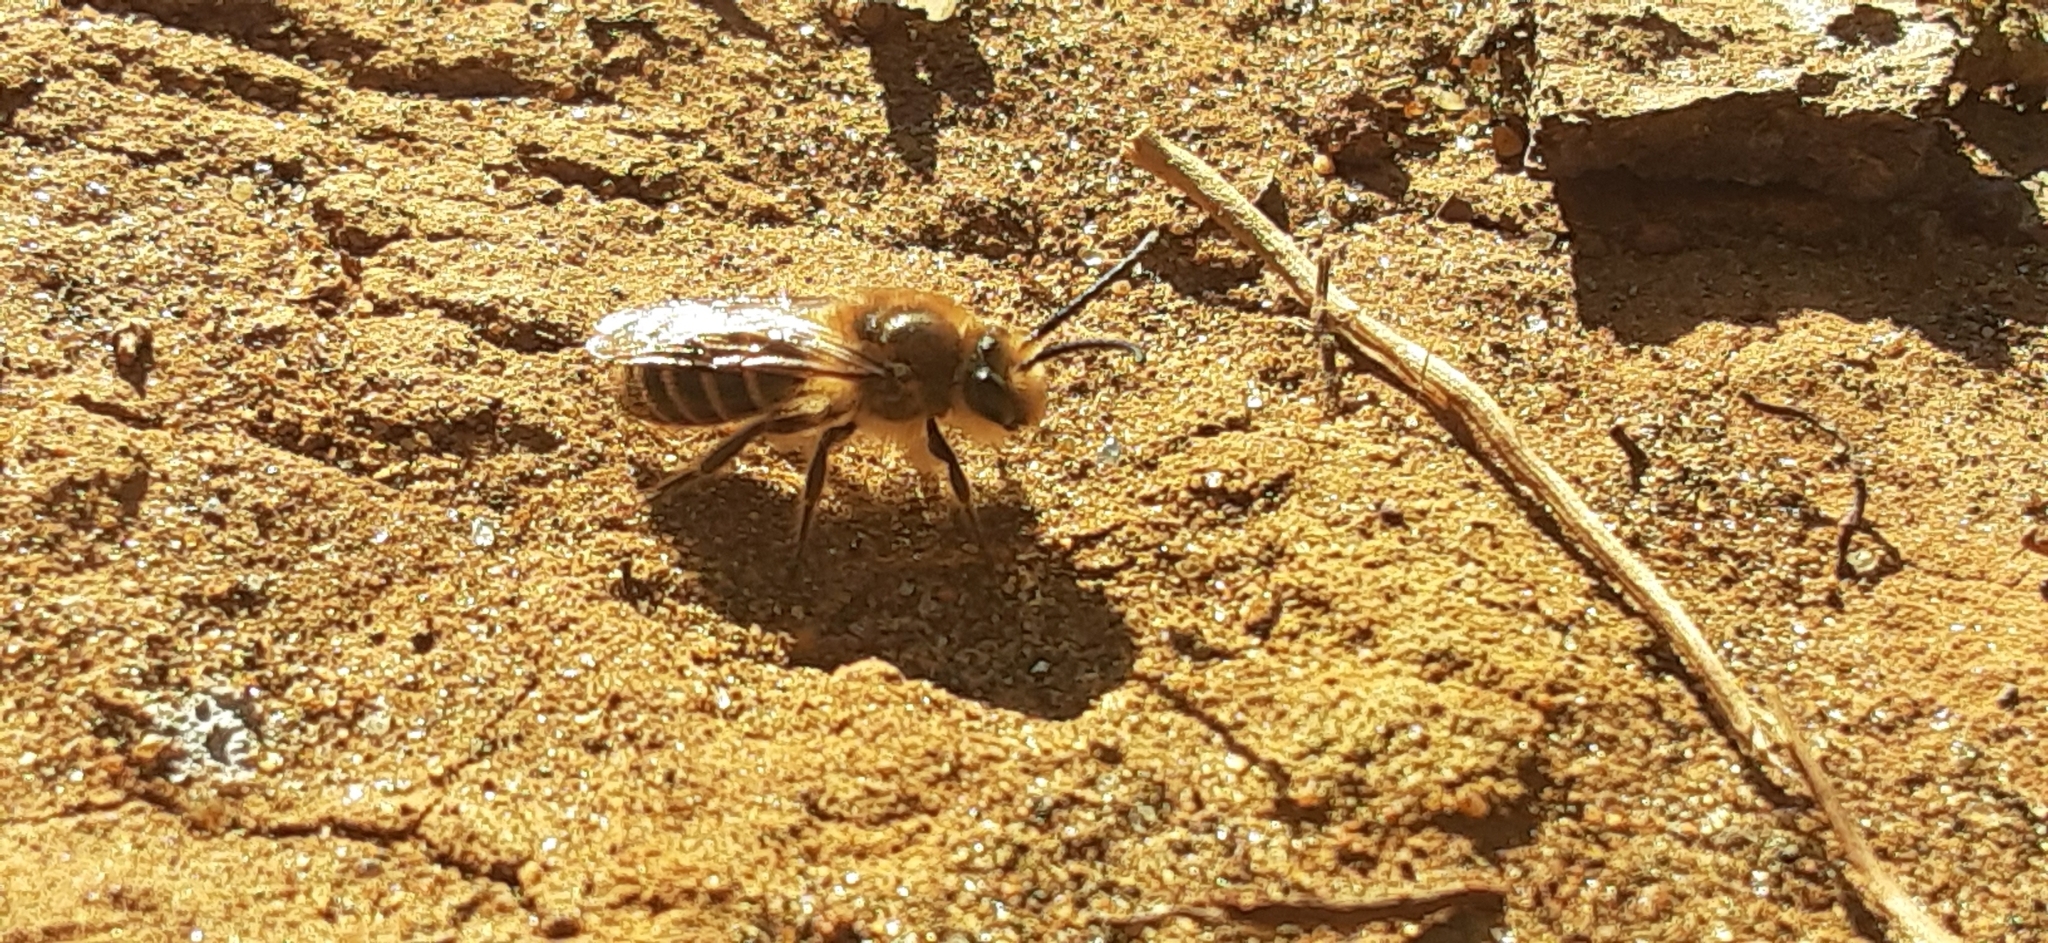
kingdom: Animalia
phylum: Arthropoda
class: Insecta
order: Hymenoptera
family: Colletidae
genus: Colletes
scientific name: Colletes inaequalis
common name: Unequal cellophane bee
